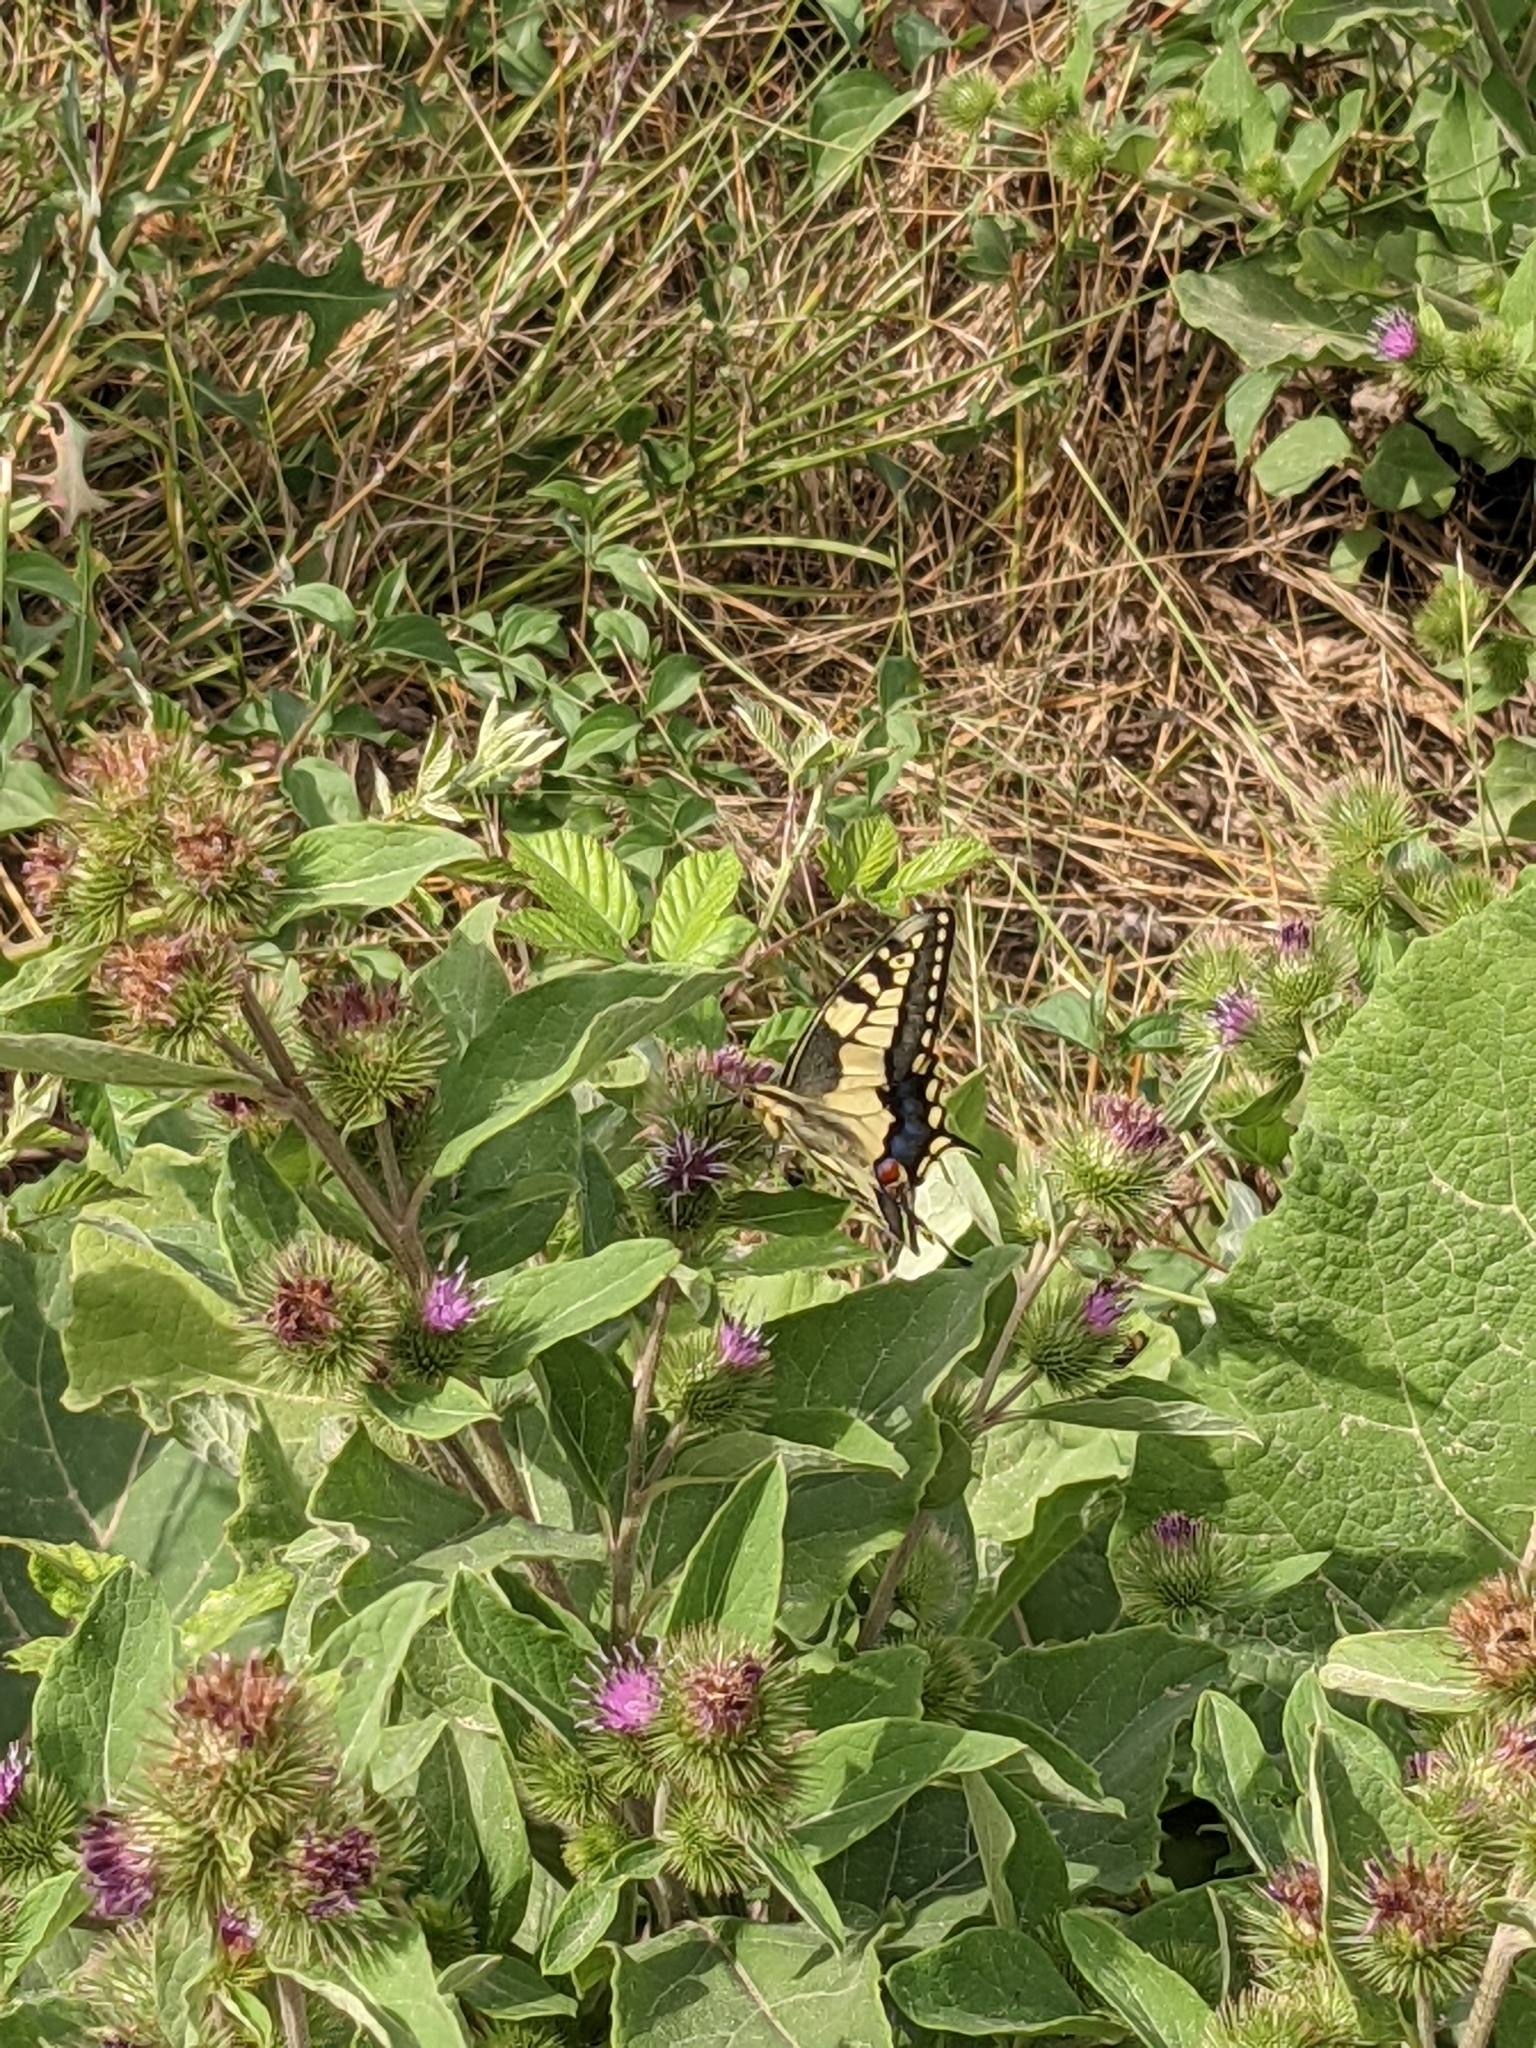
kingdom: Animalia
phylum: Arthropoda
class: Insecta
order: Lepidoptera
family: Papilionidae
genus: Papilio
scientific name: Papilio machaon
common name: Swallowtail
